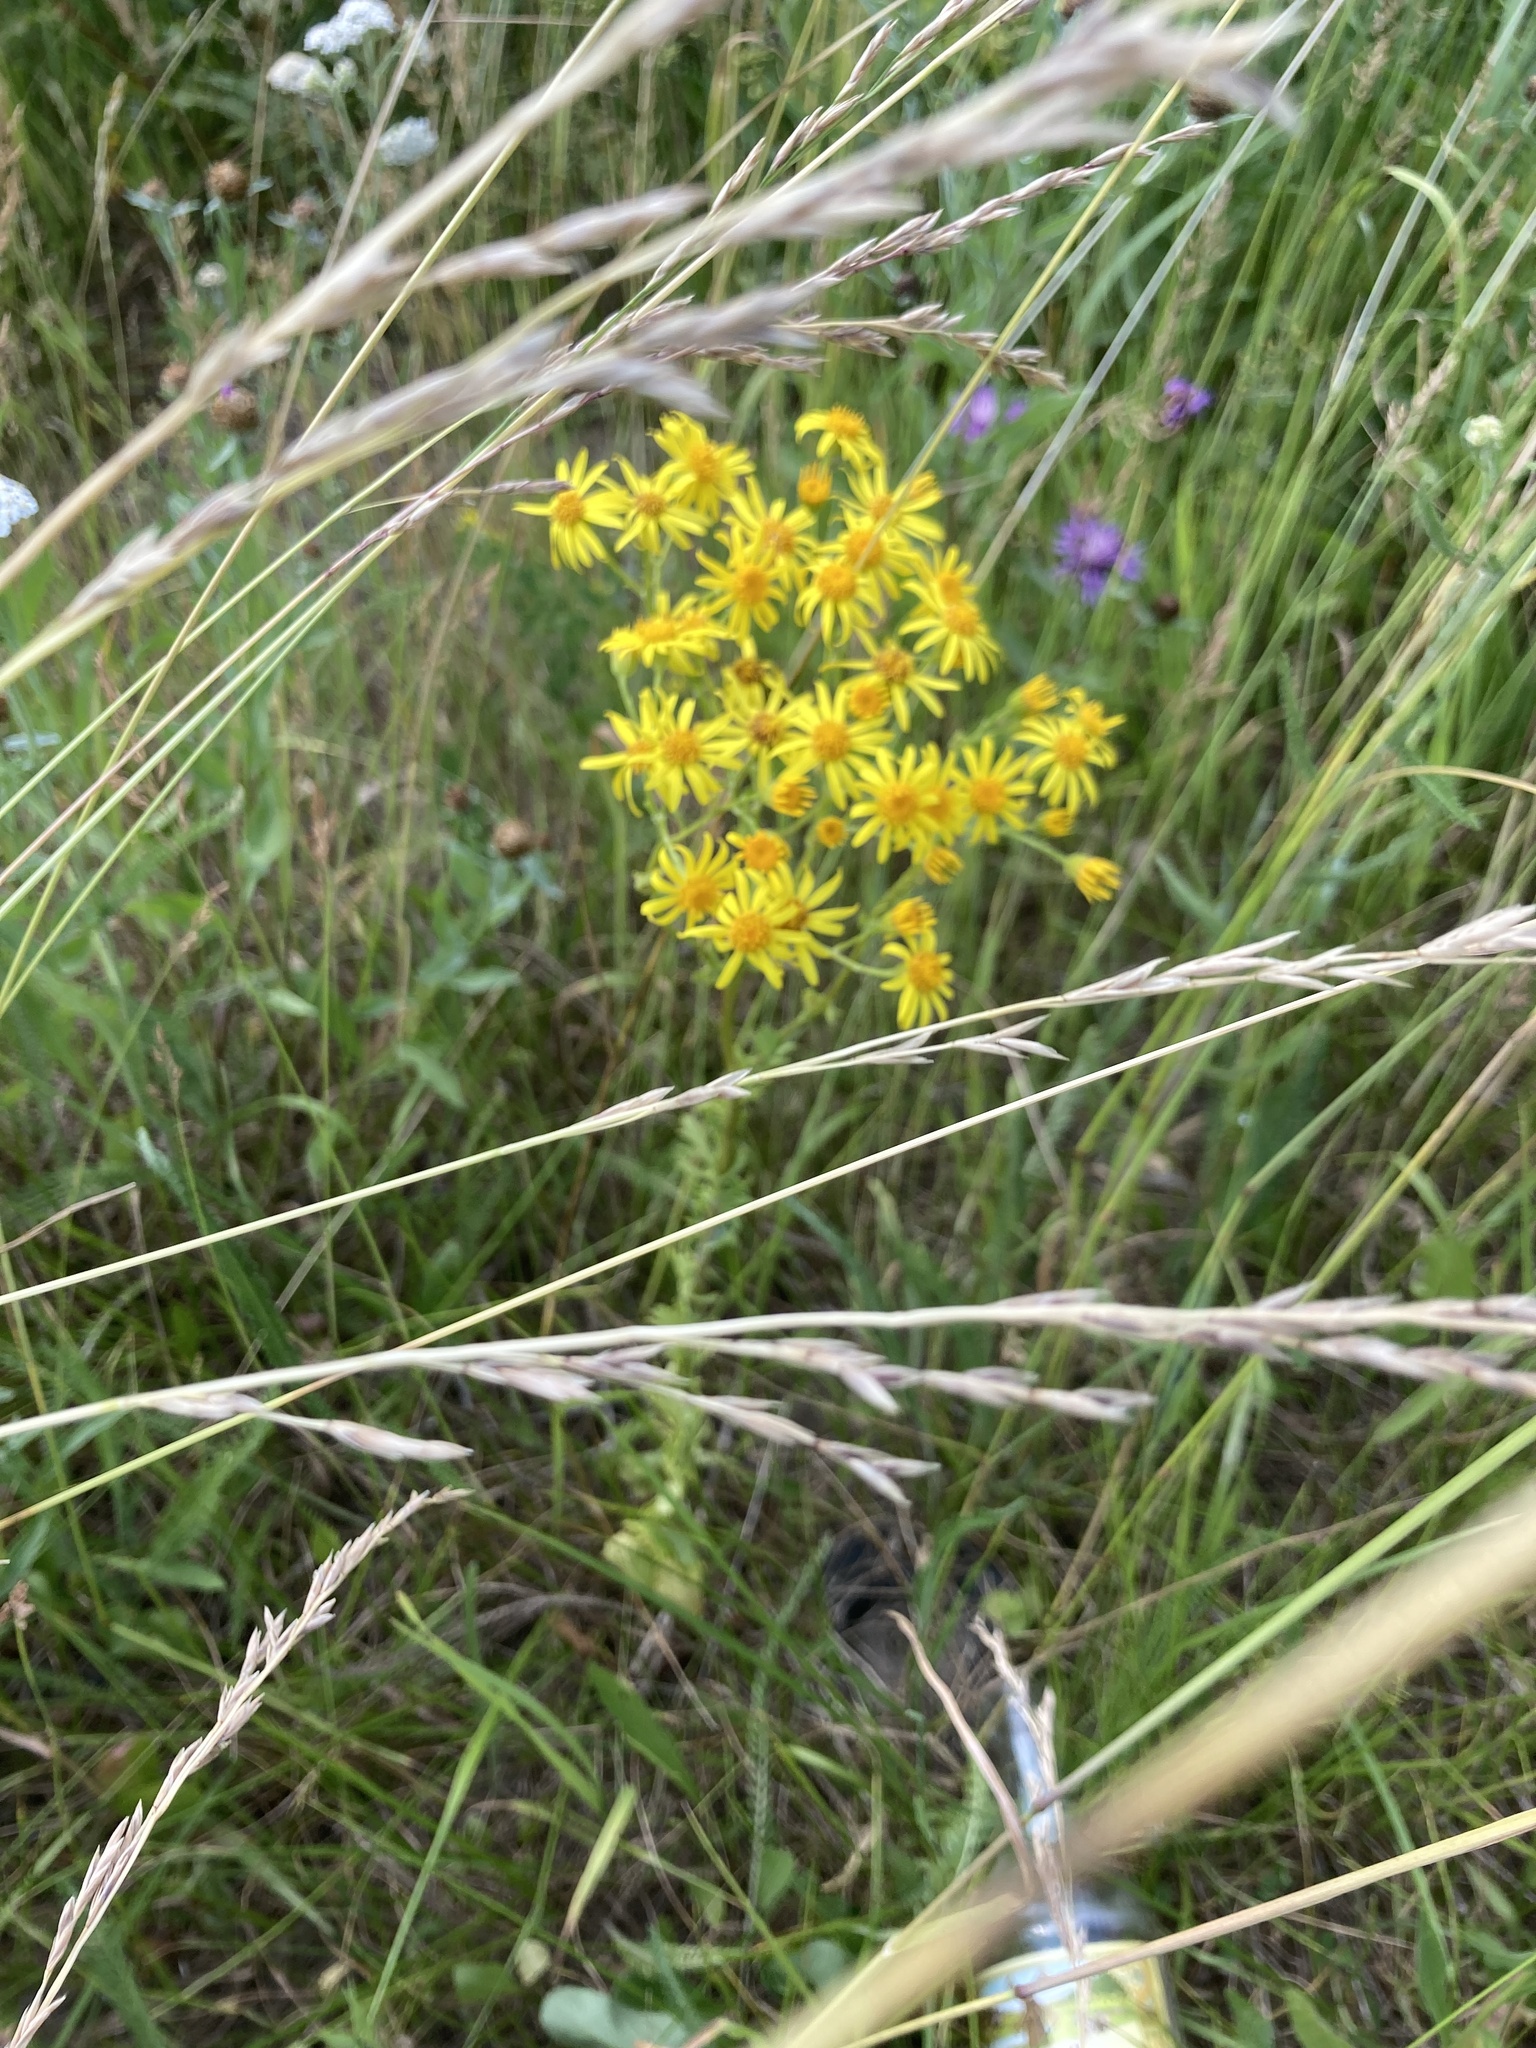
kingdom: Plantae
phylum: Tracheophyta
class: Magnoliopsida
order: Asterales
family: Asteraceae
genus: Jacobaea
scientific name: Jacobaea vulgaris
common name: Stinking willie
